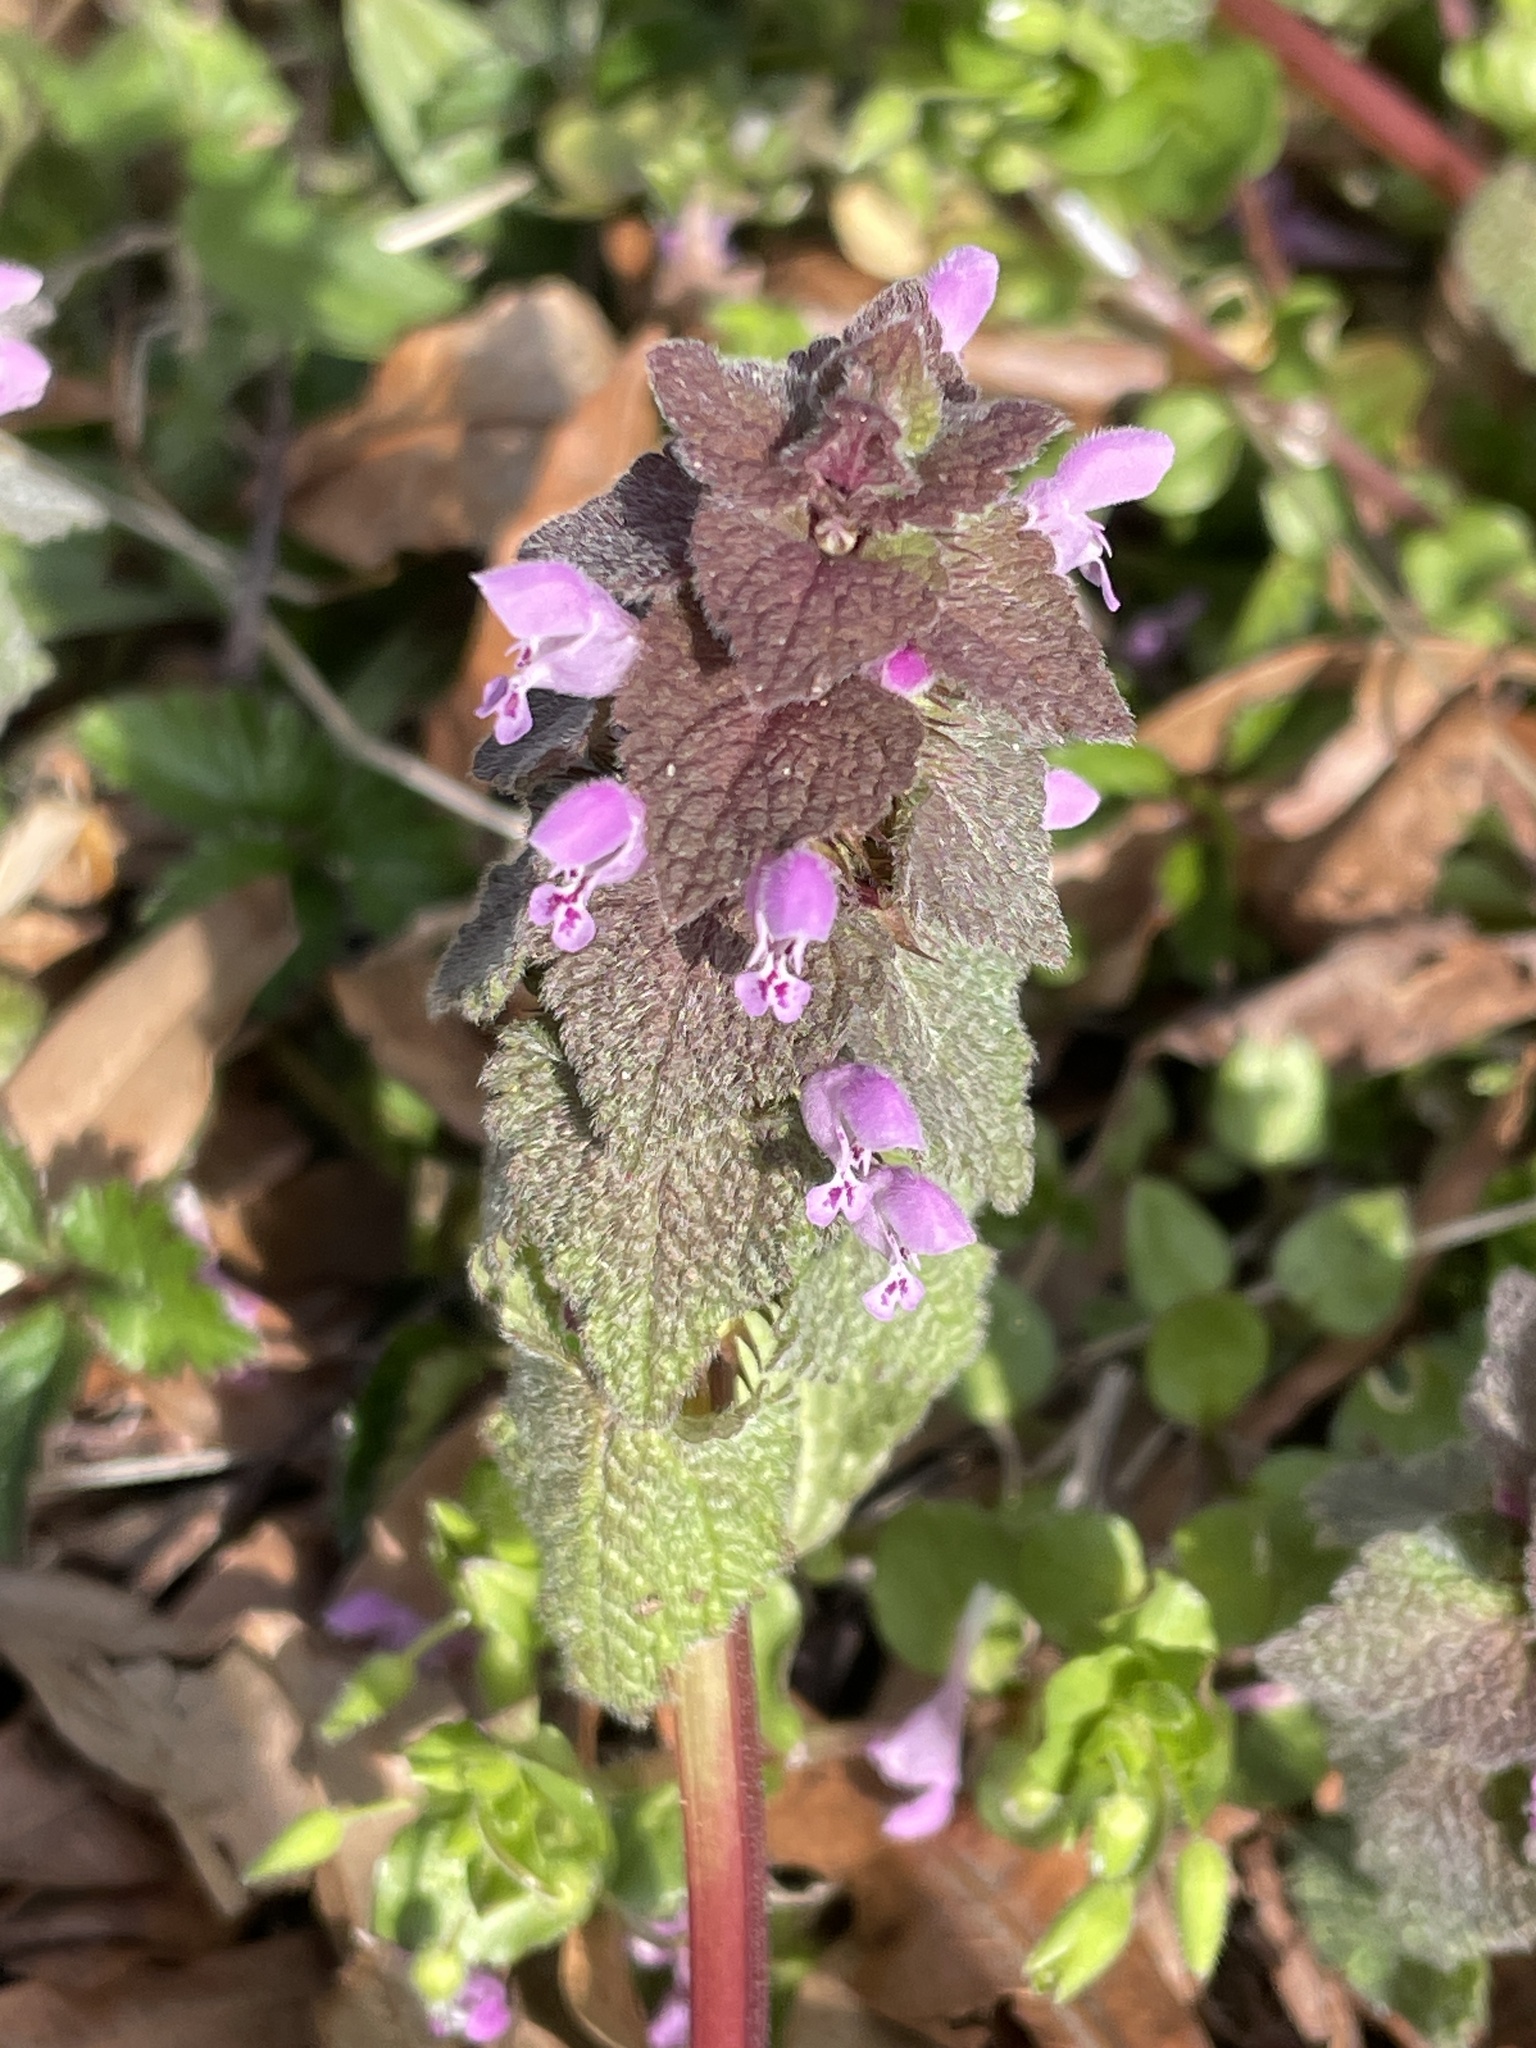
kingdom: Plantae
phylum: Tracheophyta
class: Magnoliopsida
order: Lamiales
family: Lamiaceae
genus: Lamium
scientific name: Lamium purpureum
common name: Red dead-nettle
